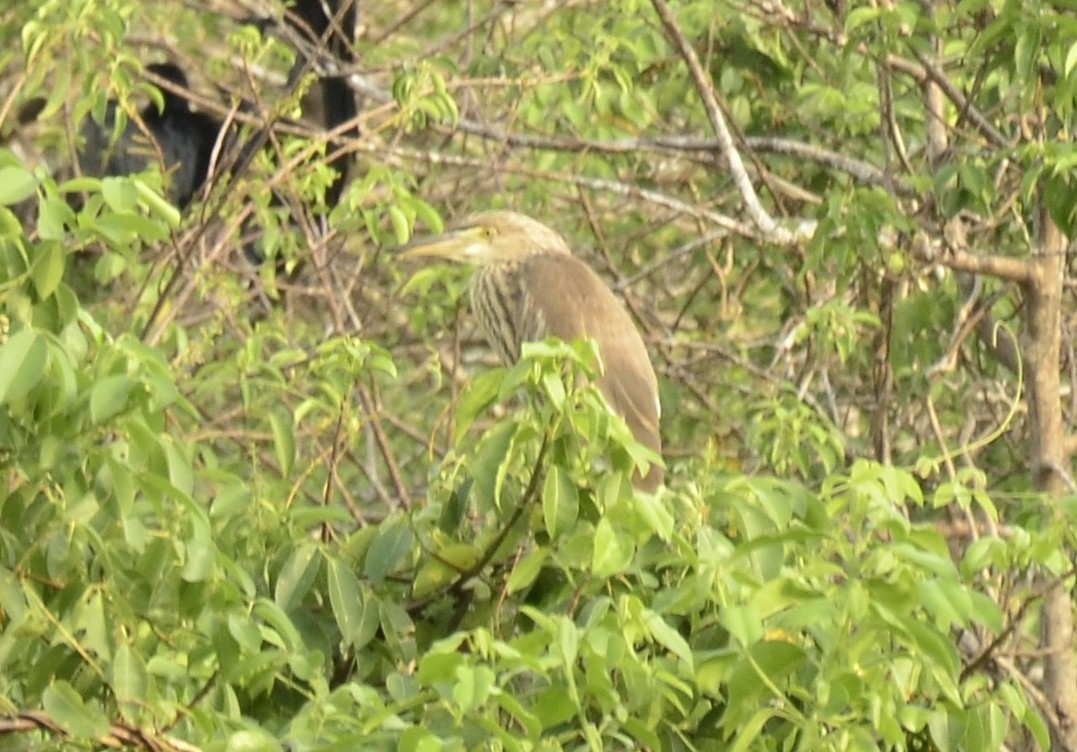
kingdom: Animalia
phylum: Chordata
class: Aves
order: Pelecaniformes
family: Ardeidae
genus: Ardeola
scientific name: Ardeola grayii
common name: Indian pond heron
